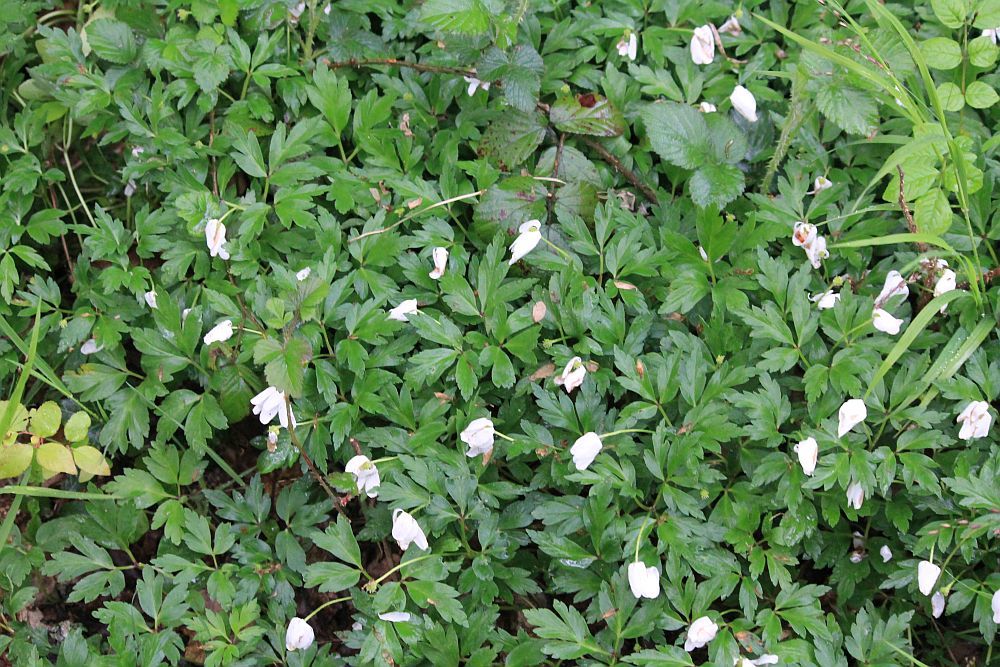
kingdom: Plantae
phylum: Tracheophyta
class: Magnoliopsida
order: Ranunculales
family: Ranunculaceae
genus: Anemone
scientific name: Anemone nemorosa
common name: Wood anemone
